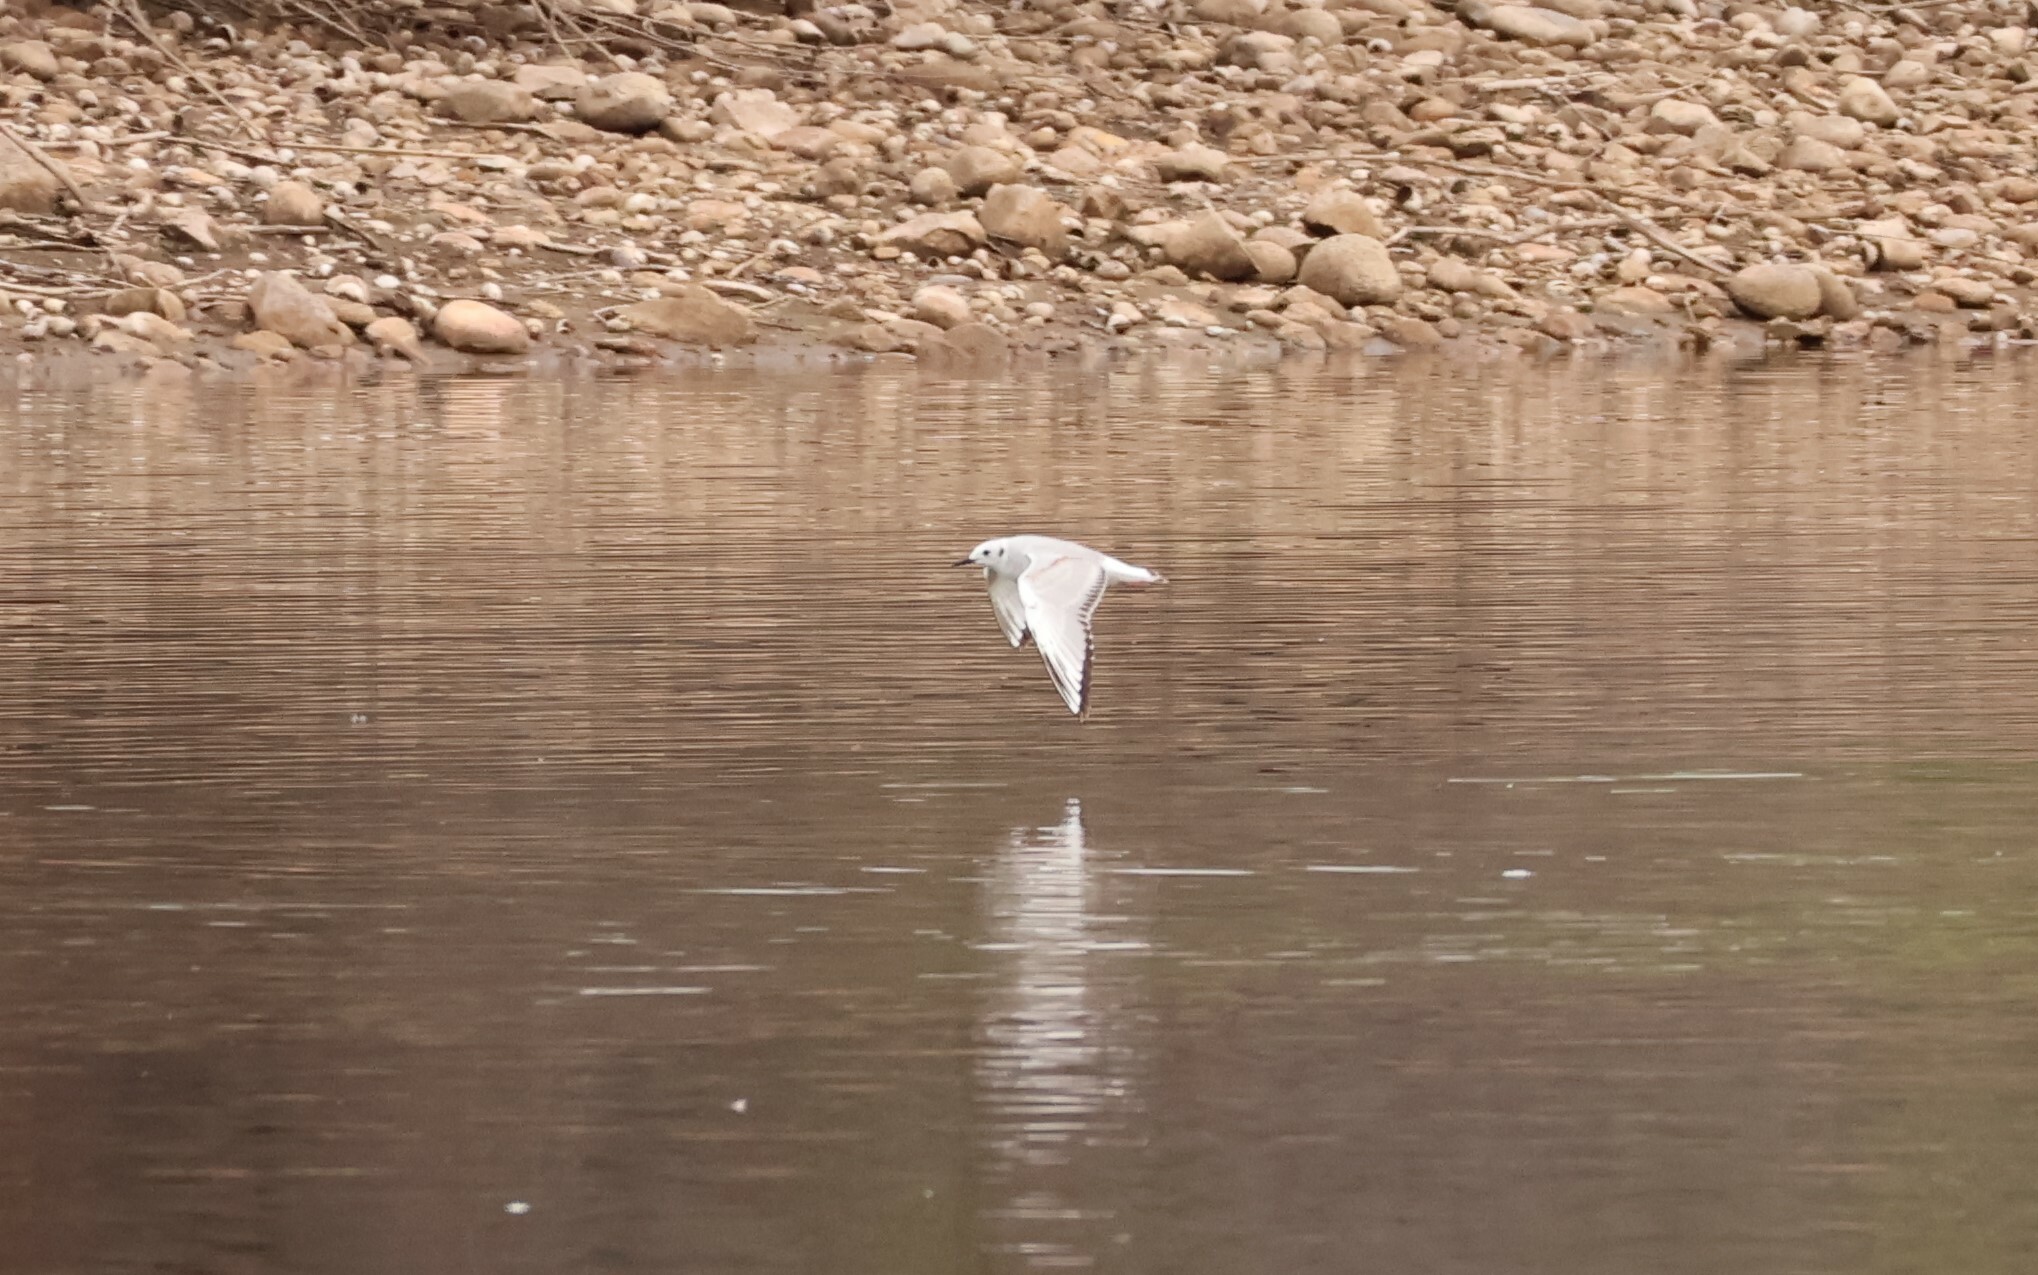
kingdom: Animalia
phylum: Chordata
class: Aves
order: Charadriiformes
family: Laridae
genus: Chroicocephalus
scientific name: Chroicocephalus philadelphia
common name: Bonaparte's gull
